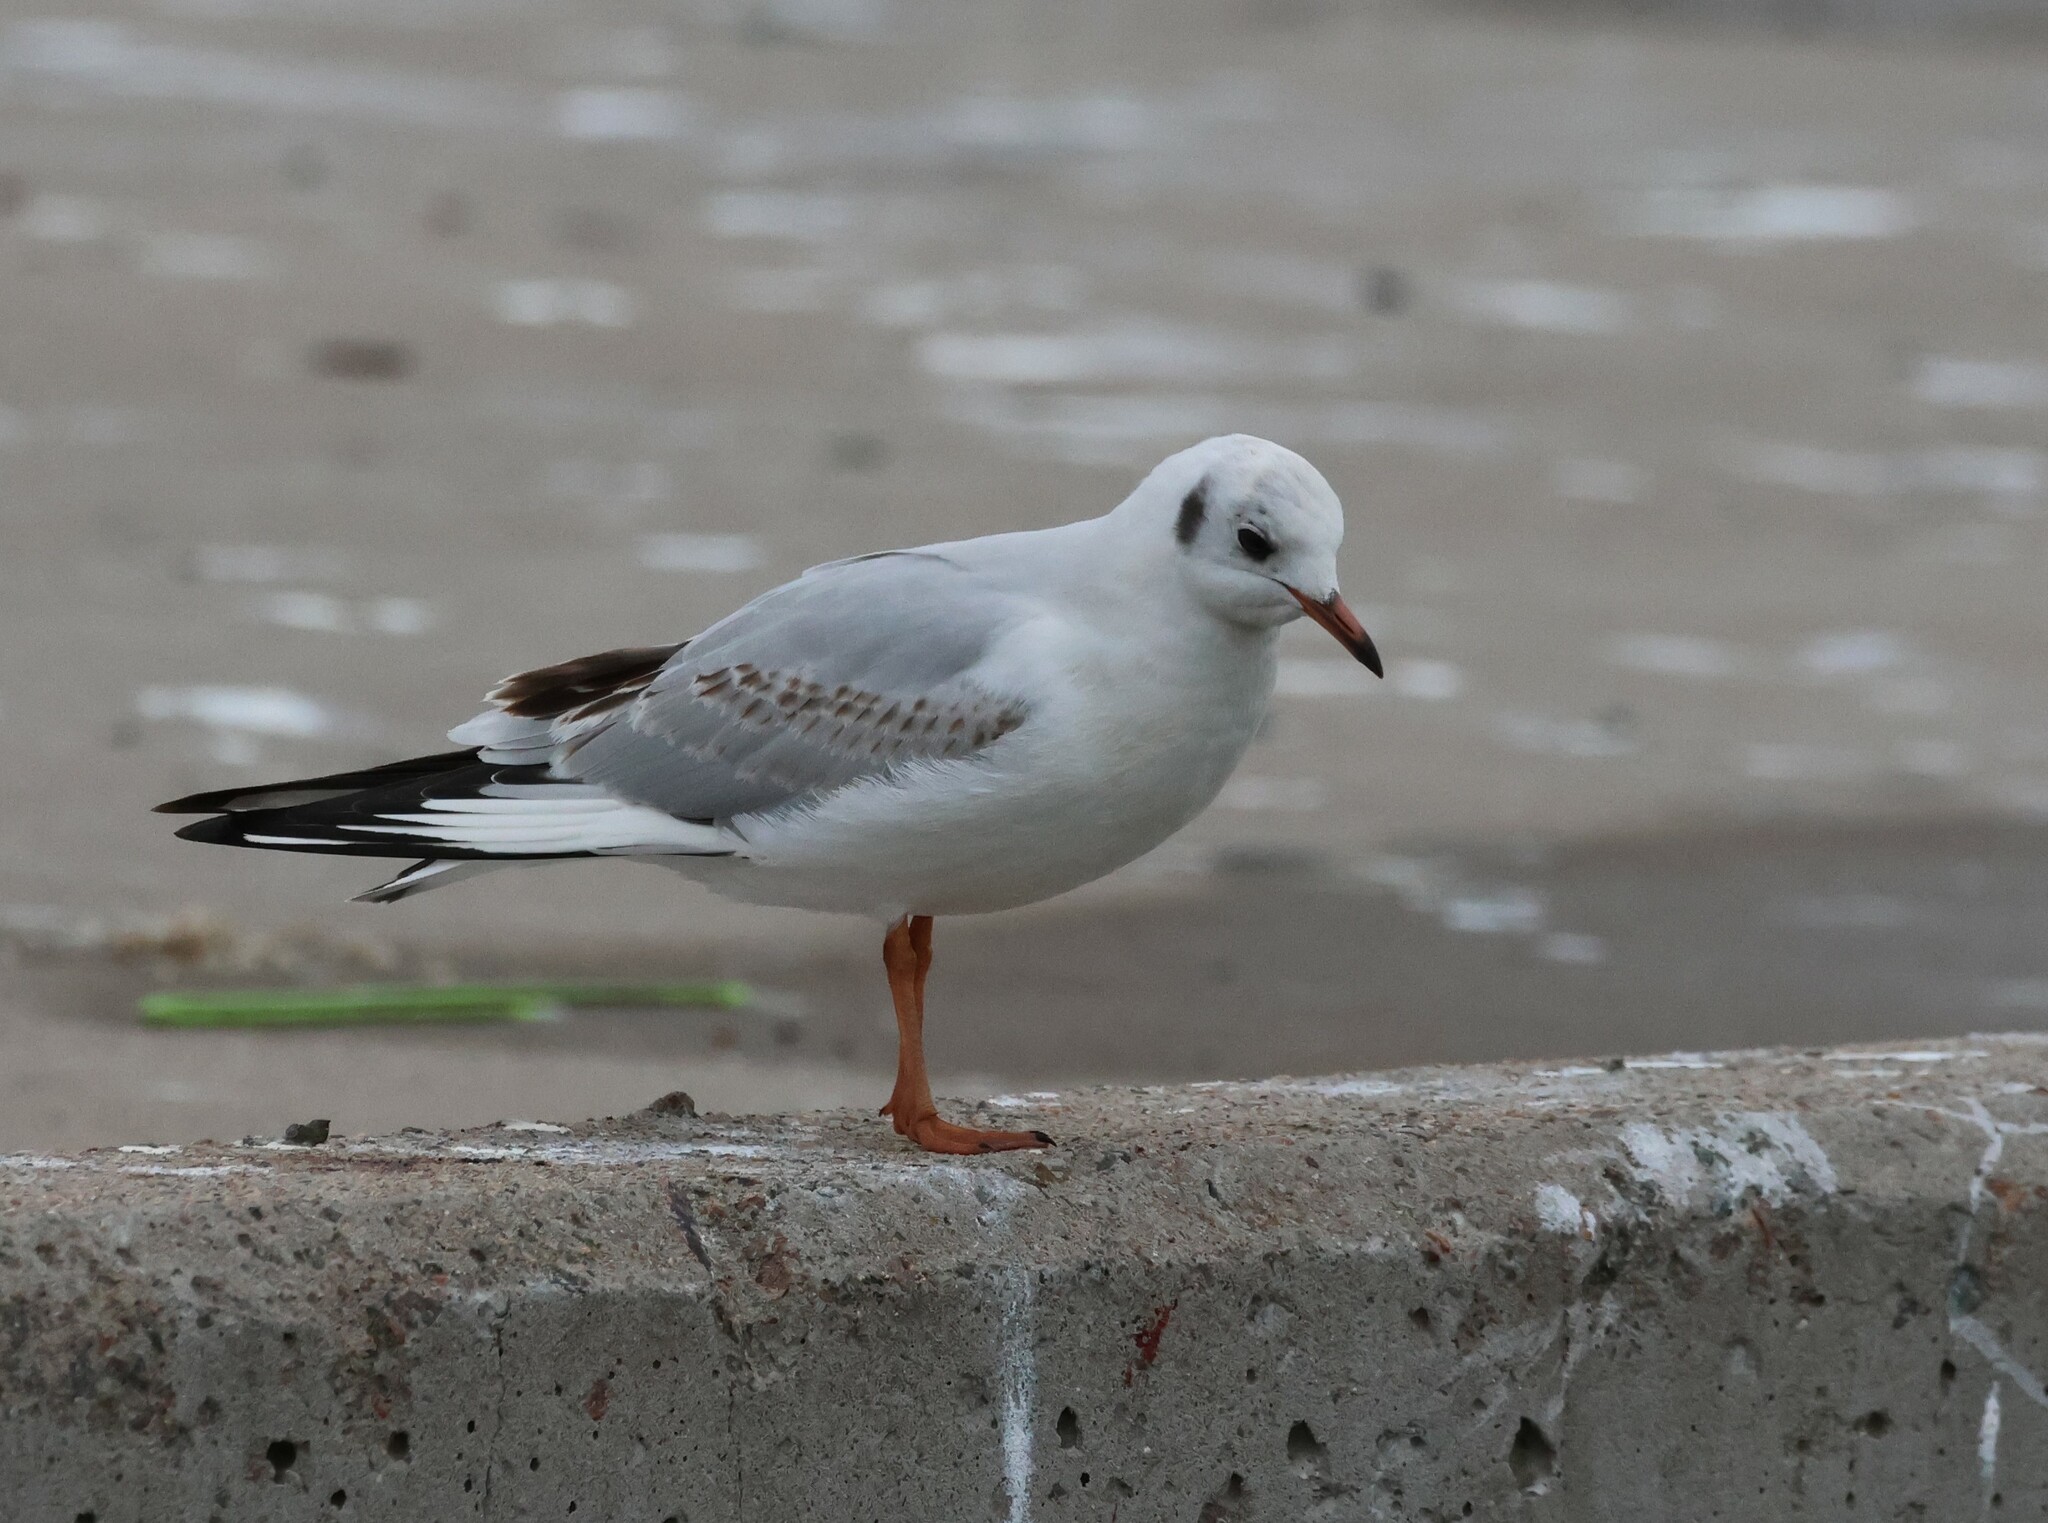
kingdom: Animalia
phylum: Chordata
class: Aves
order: Charadriiformes
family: Laridae
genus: Chroicocephalus
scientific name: Chroicocephalus ridibundus
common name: Black-headed gull
